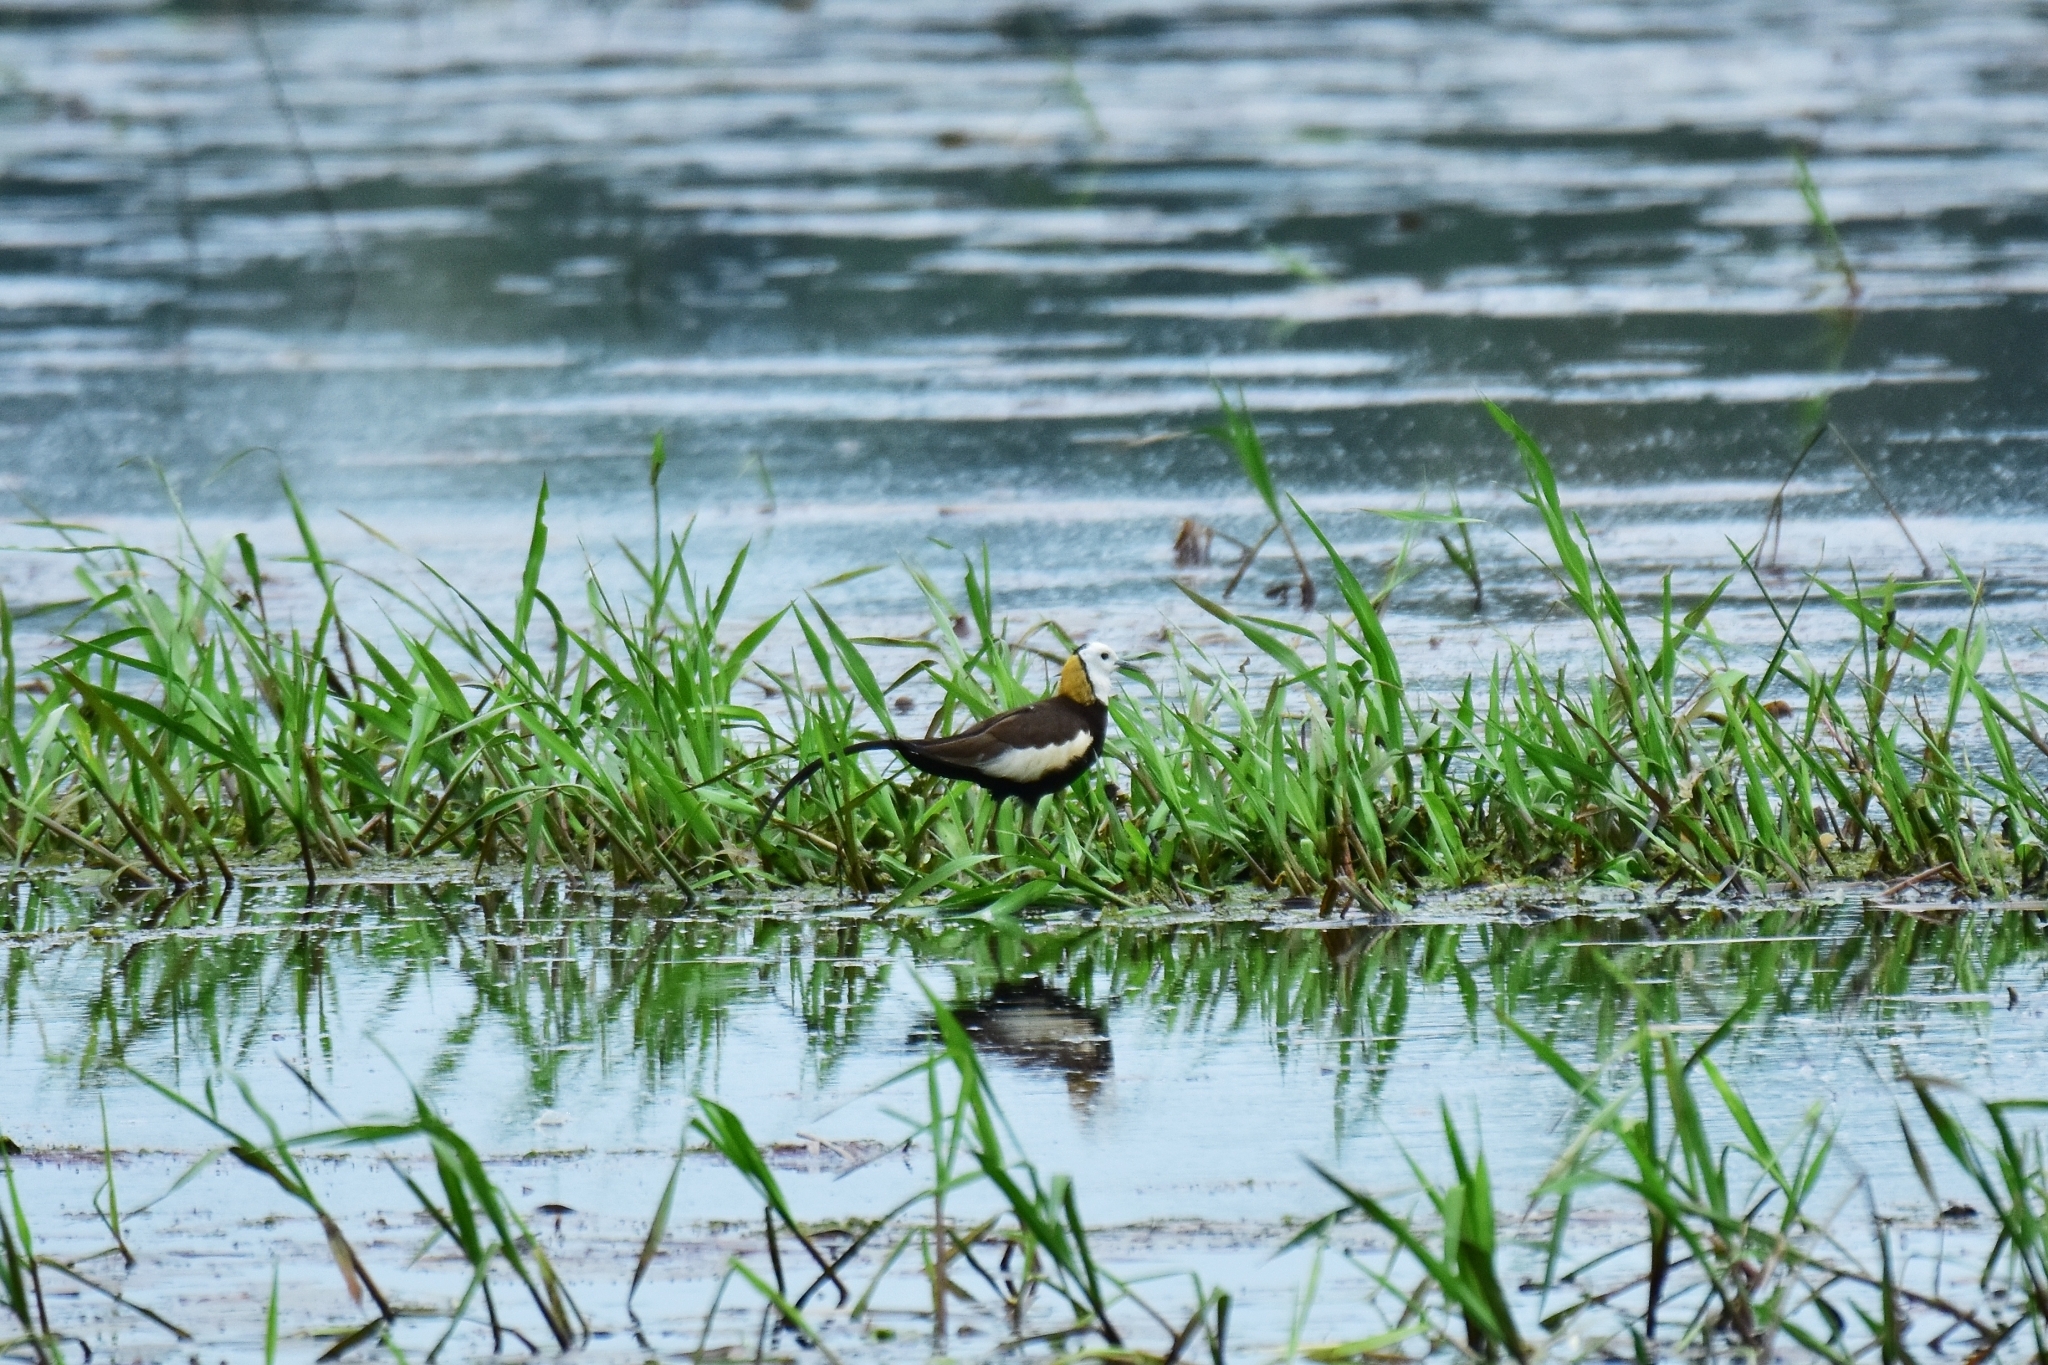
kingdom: Animalia
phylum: Chordata
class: Aves
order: Charadriiformes
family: Jacanidae
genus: Hydrophasianus
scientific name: Hydrophasianus chirurgus
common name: Pheasant-tailed jacana
